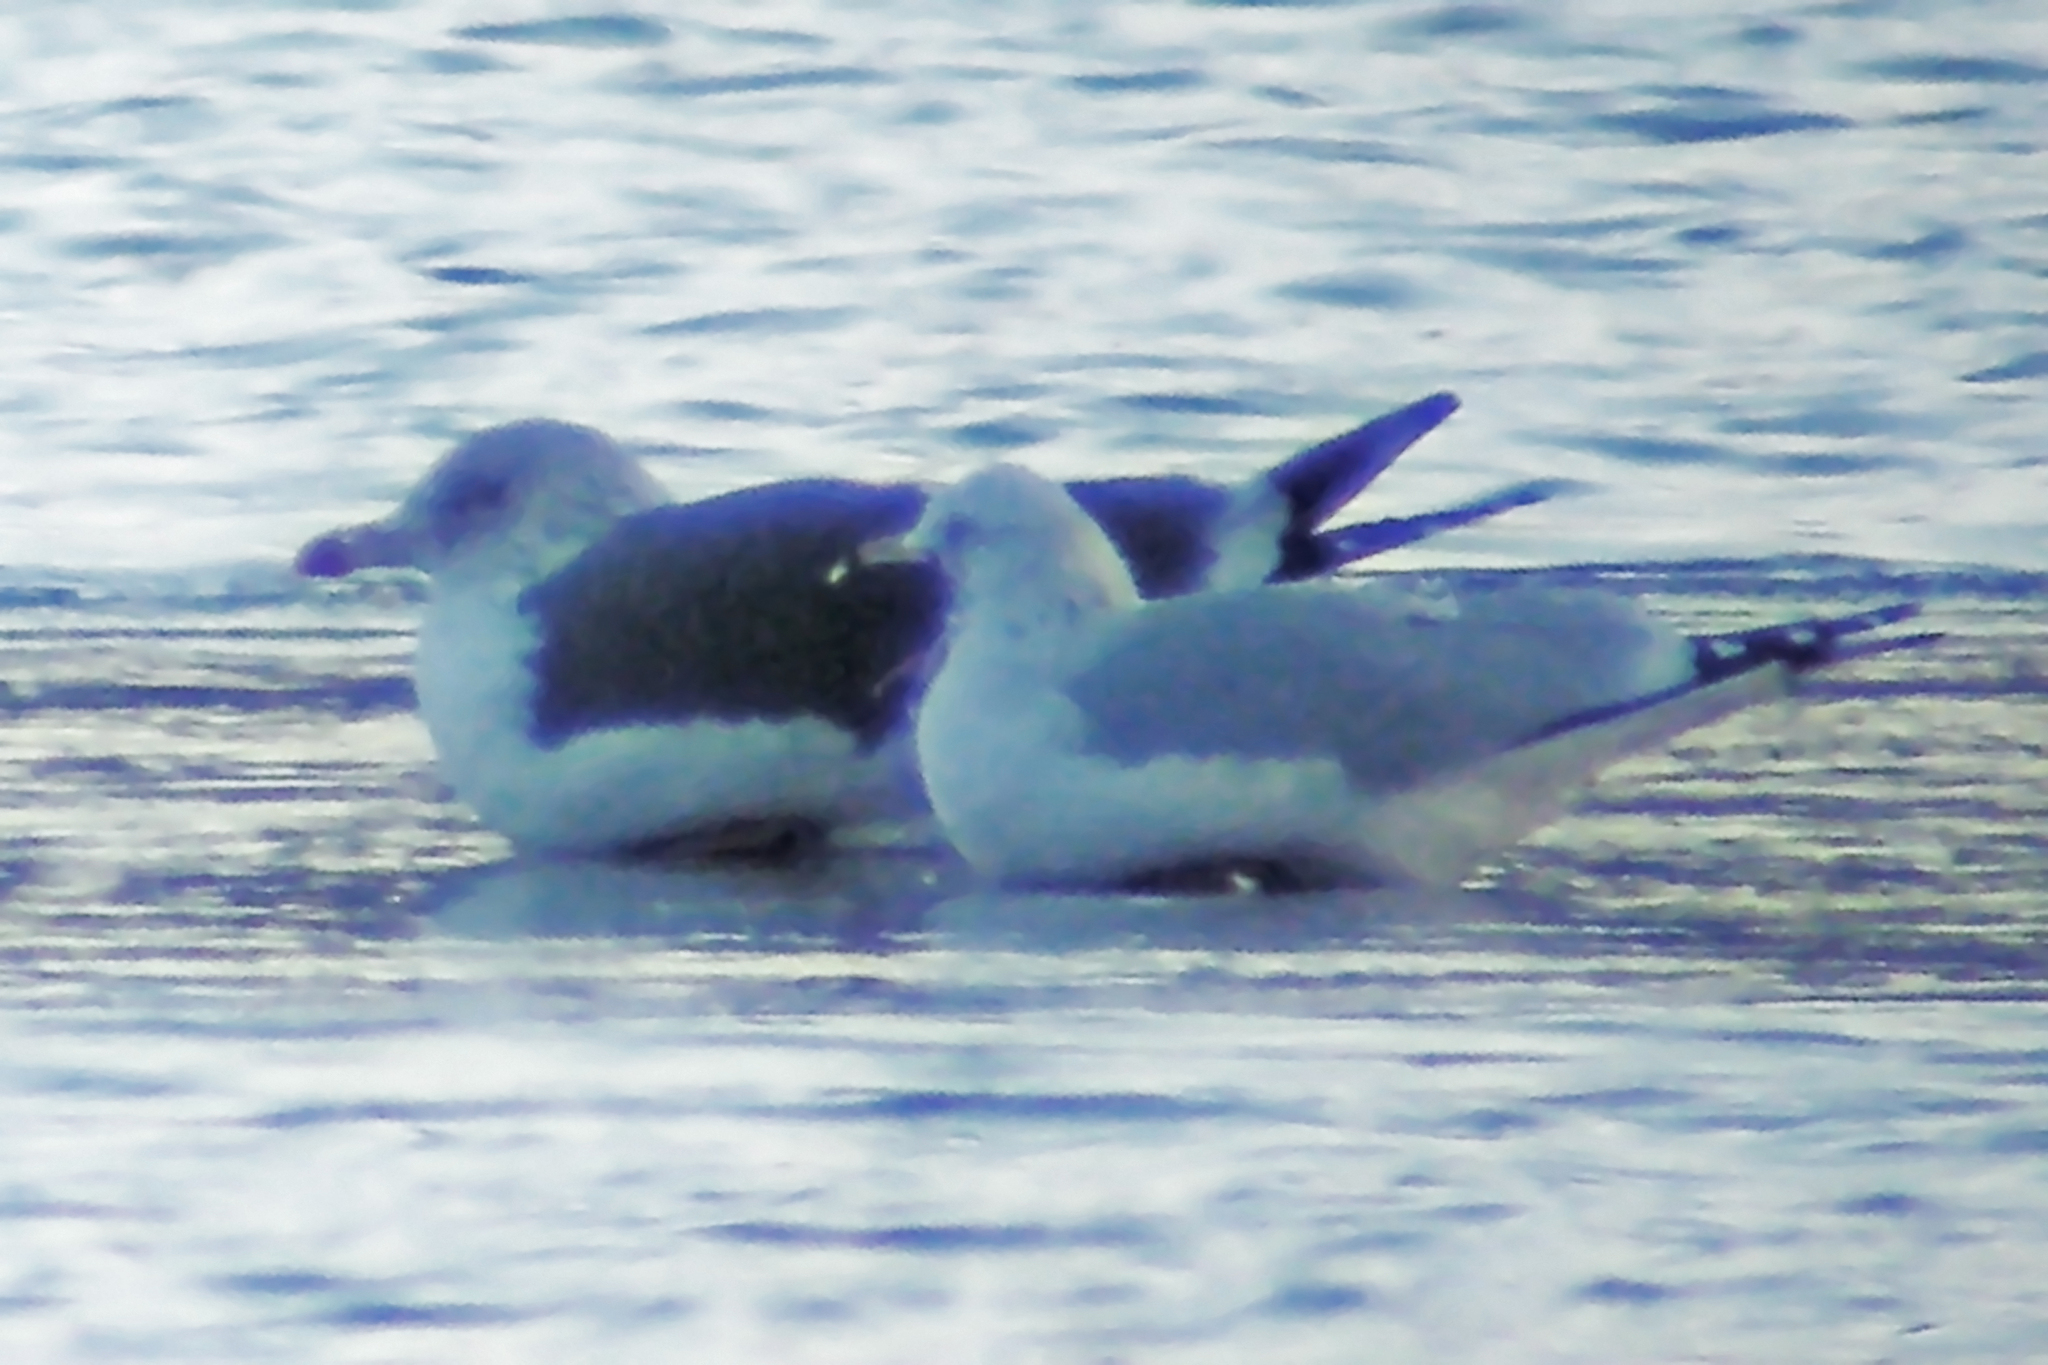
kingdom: Animalia
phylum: Chordata
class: Aves
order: Charadriiformes
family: Laridae
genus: Larus
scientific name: Larus delawarensis
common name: Ring-billed gull
